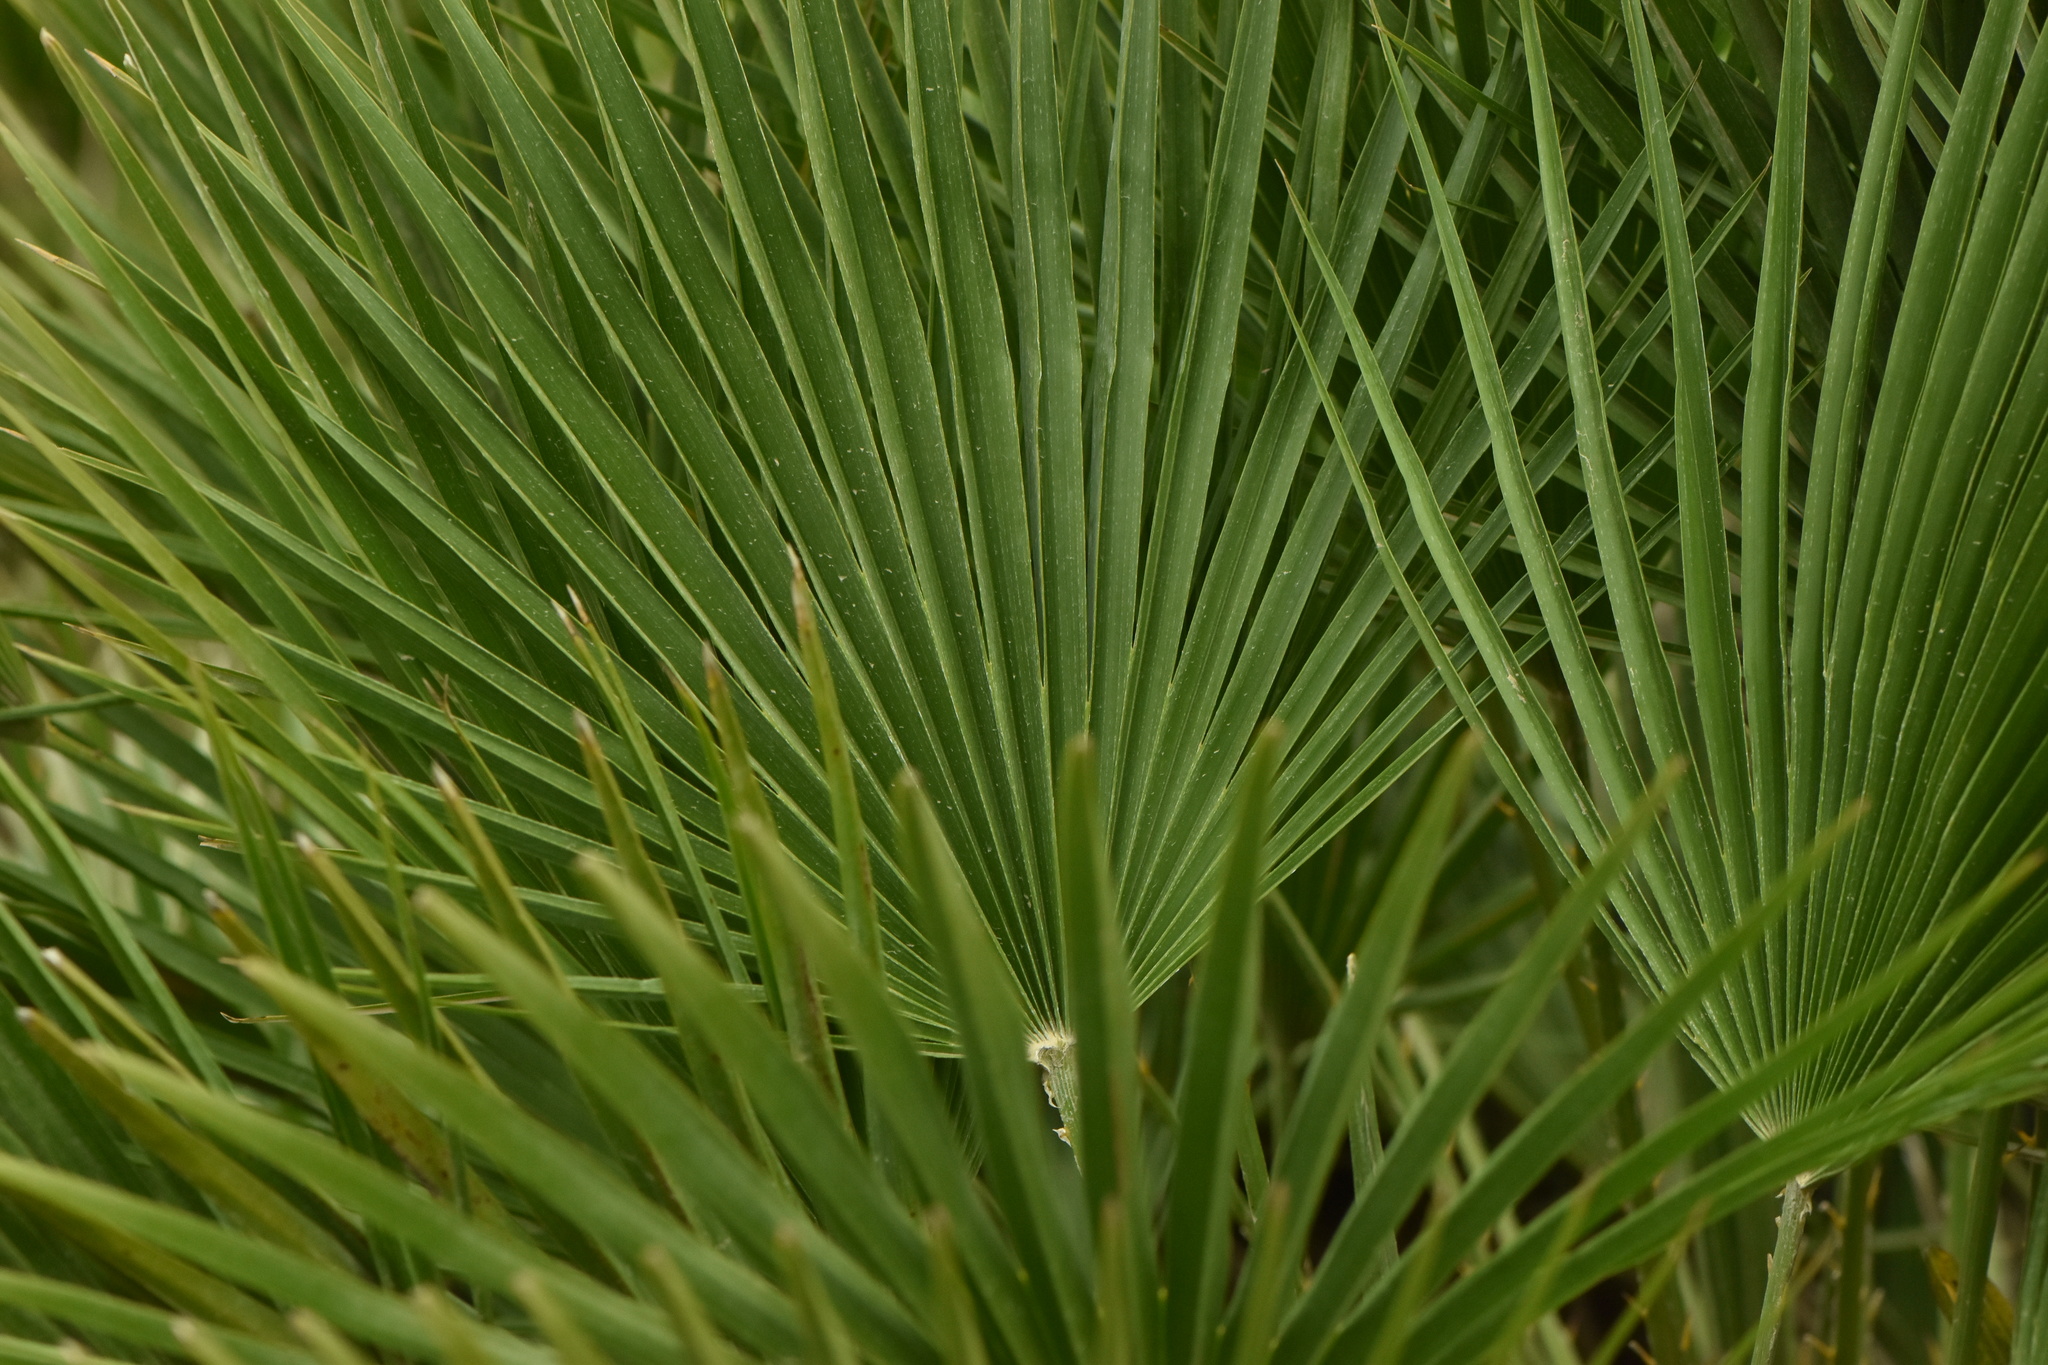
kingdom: Plantae
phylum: Tracheophyta
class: Liliopsida
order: Arecales
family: Arecaceae
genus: Chamaerops
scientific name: Chamaerops humilis
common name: Dwarf fan palm
